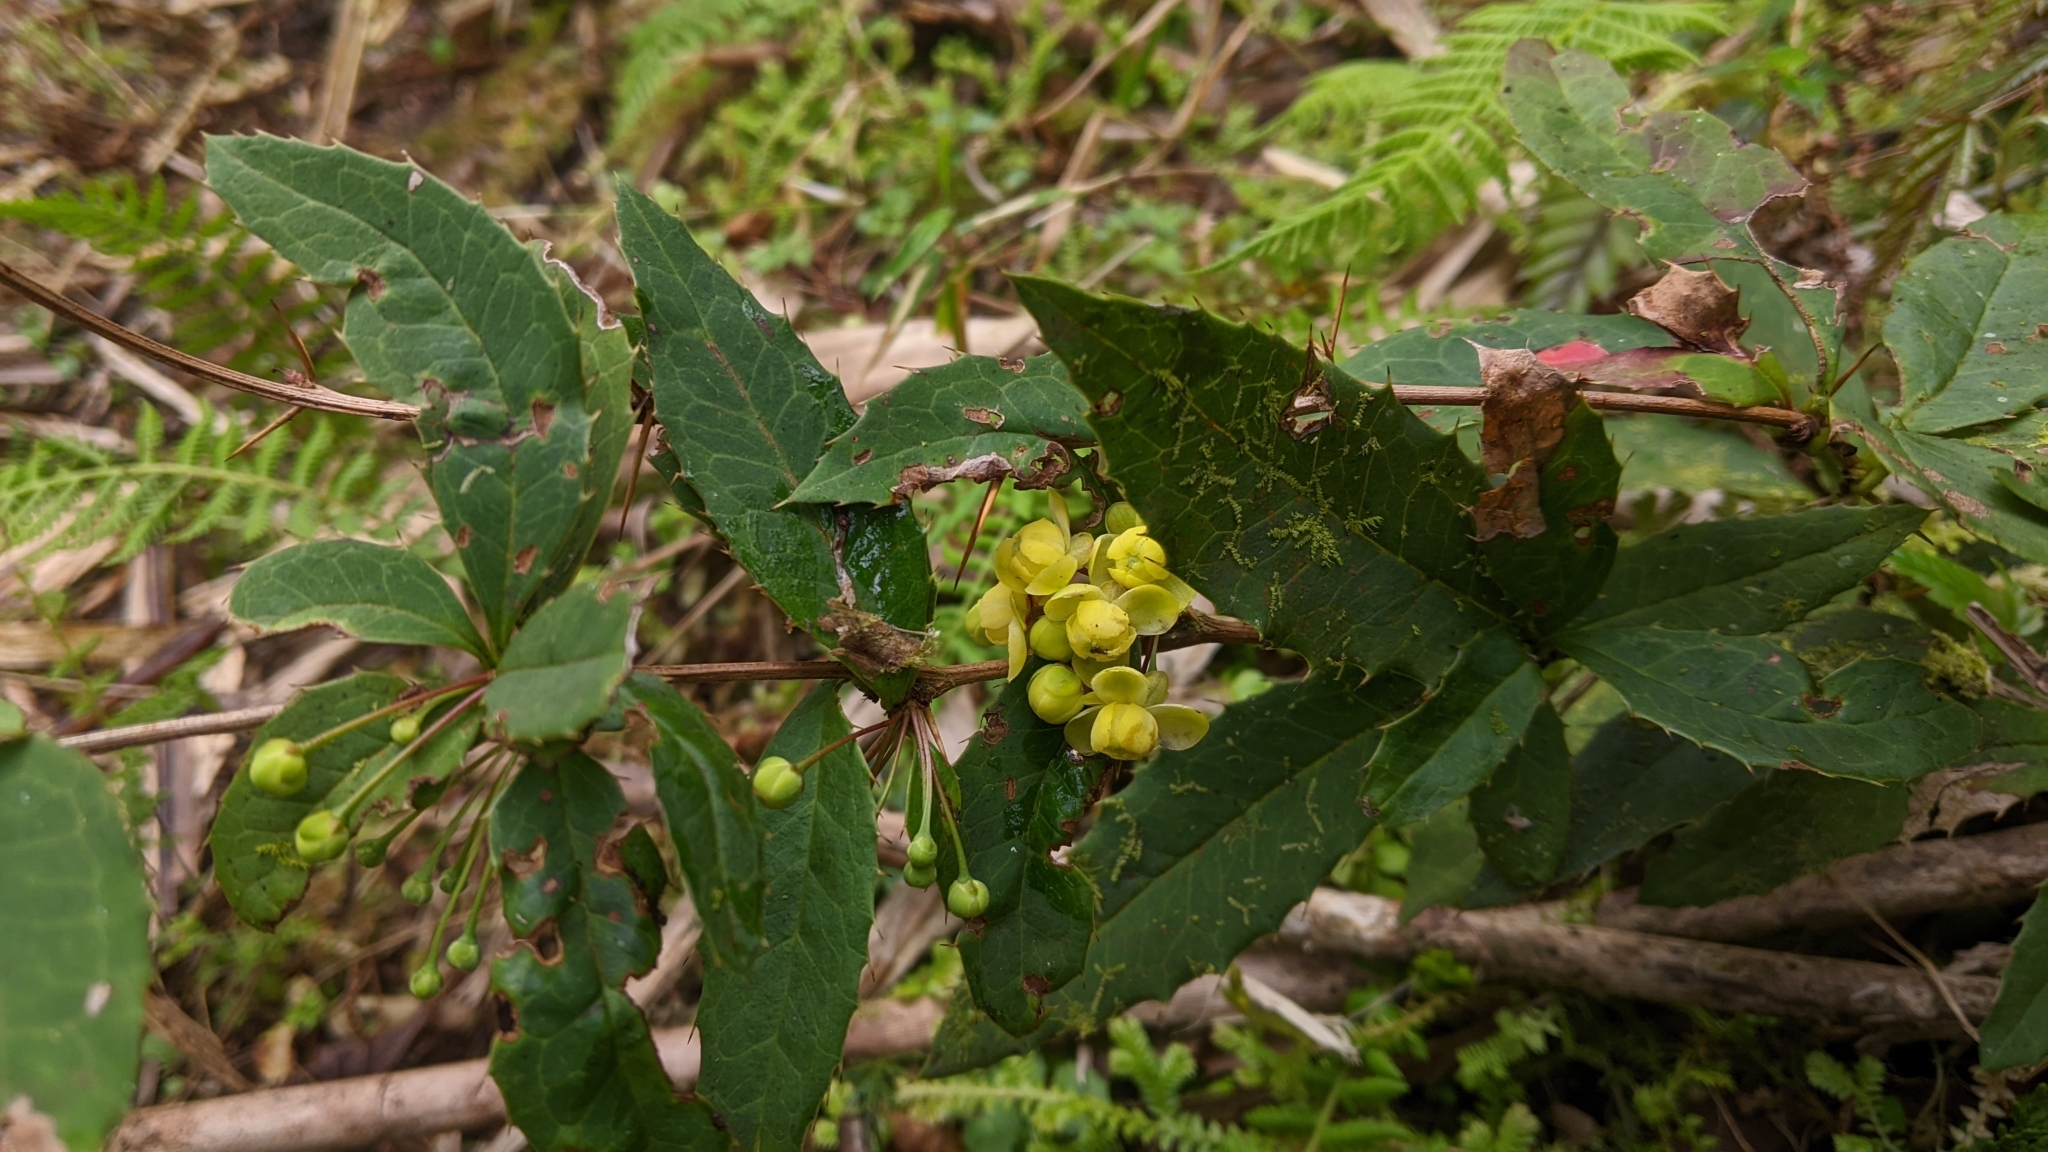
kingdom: Plantae
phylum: Tracheophyta
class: Magnoliopsida
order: Ranunculales
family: Berberidaceae
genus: Berberis
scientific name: Berberis morii
